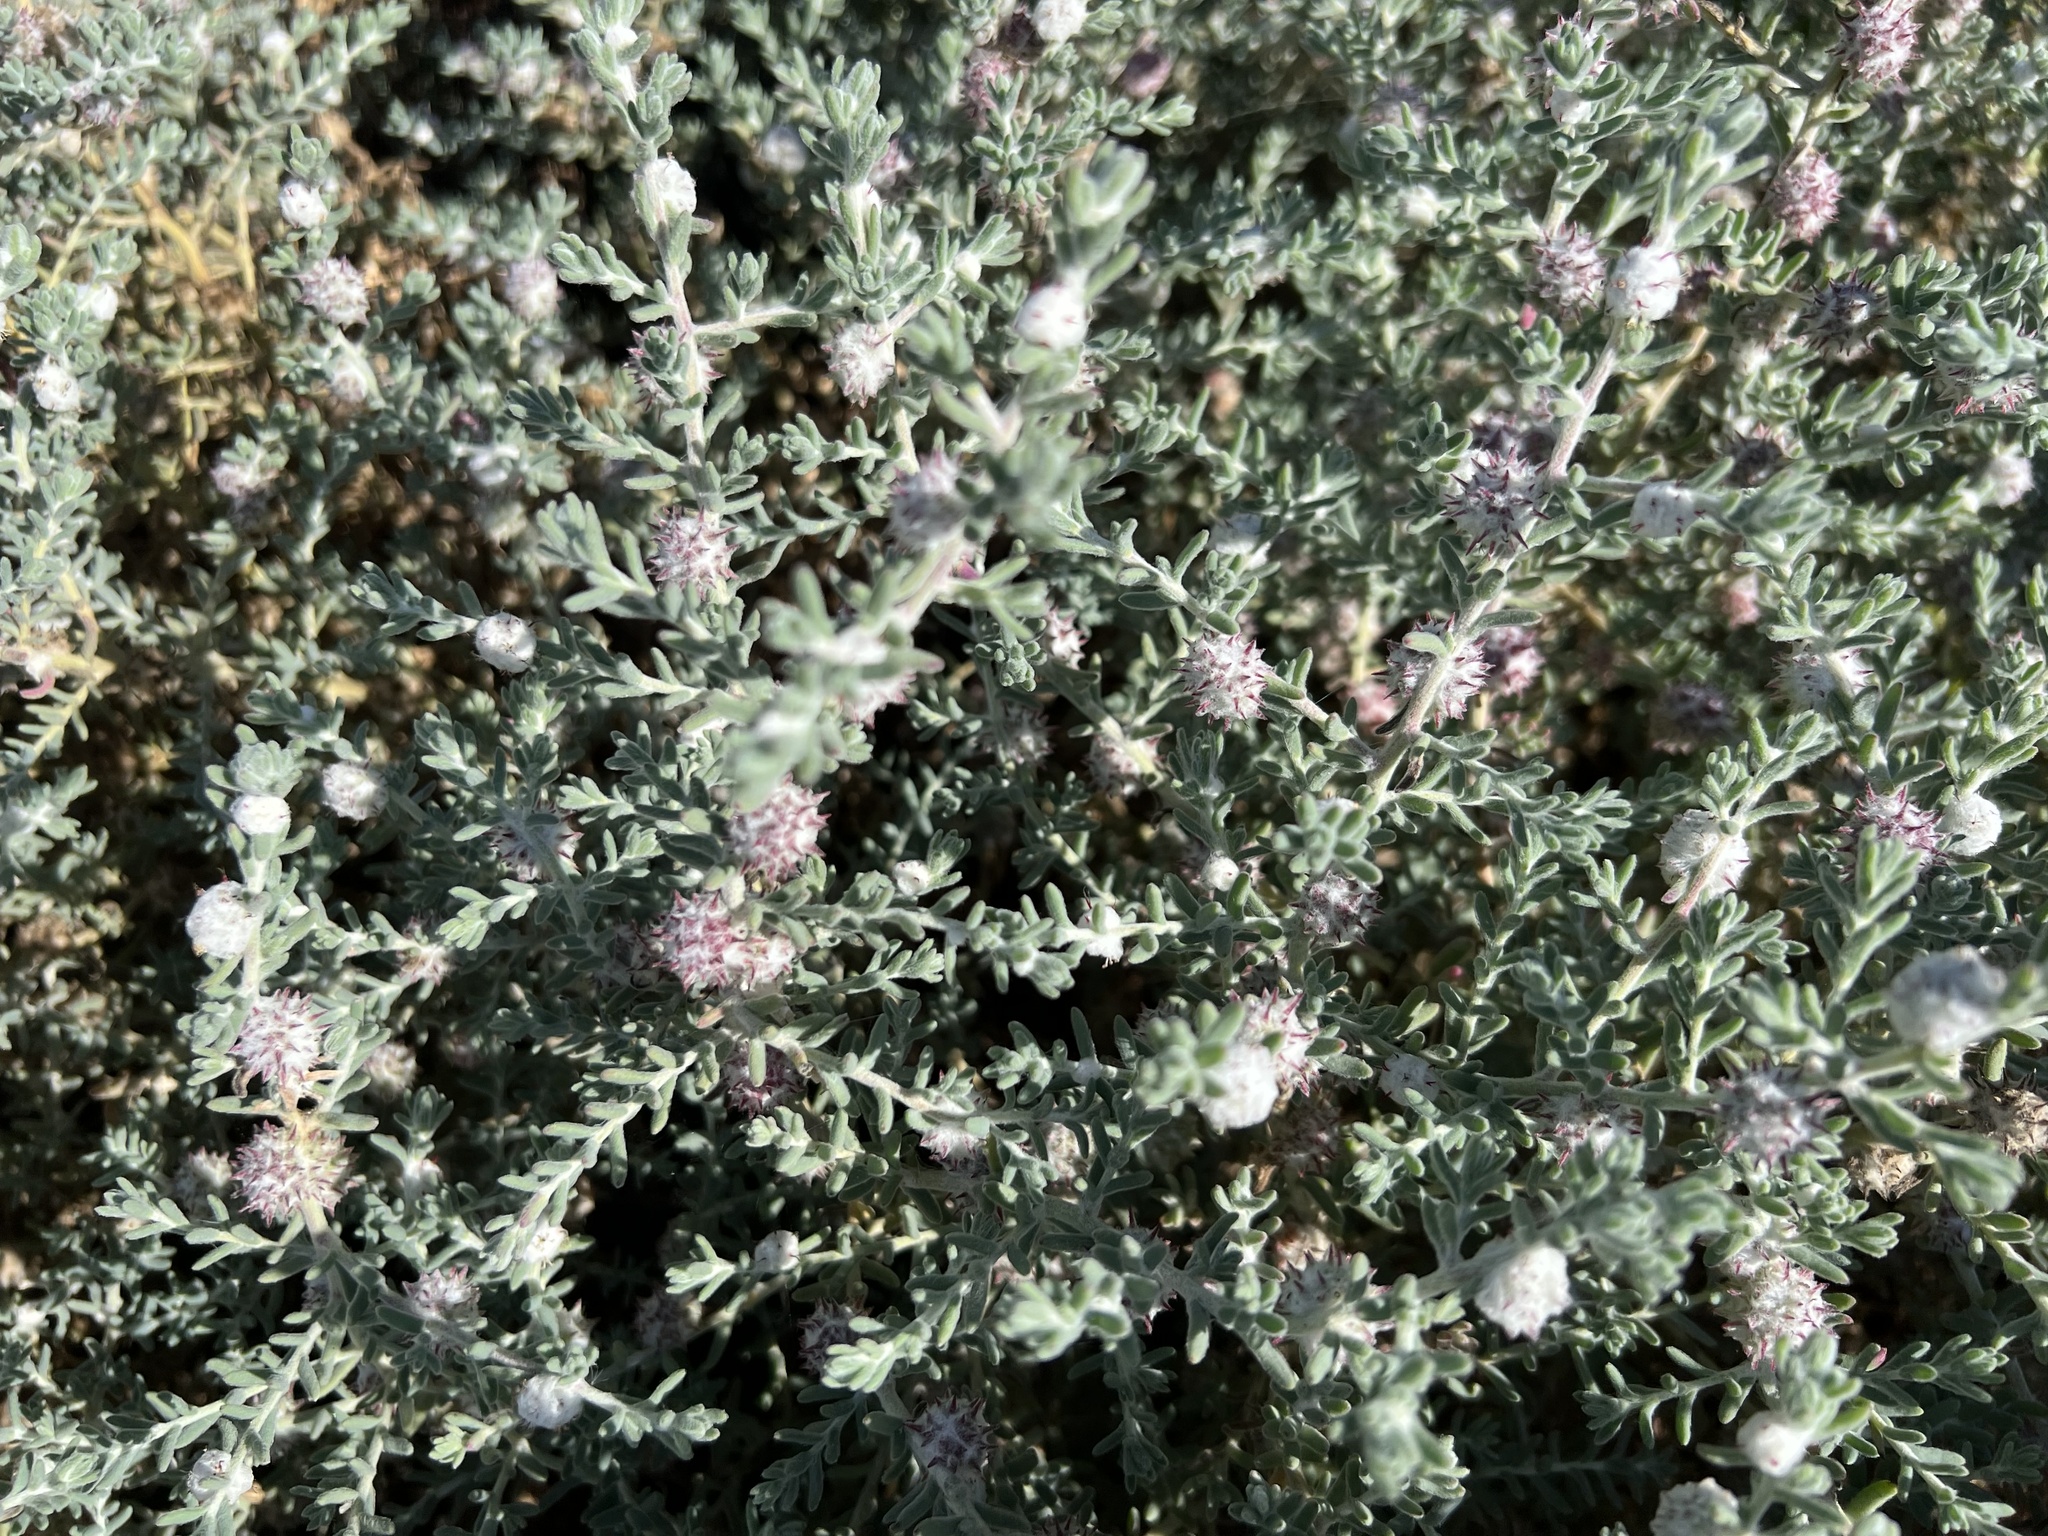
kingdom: Plantae
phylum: Tracheophyta
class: Magnoliopsida
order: Caryophyllales
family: Amaranthaceae
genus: Dissocarpus
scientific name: Dissocarpus paradoxus
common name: Bur-saltbush
